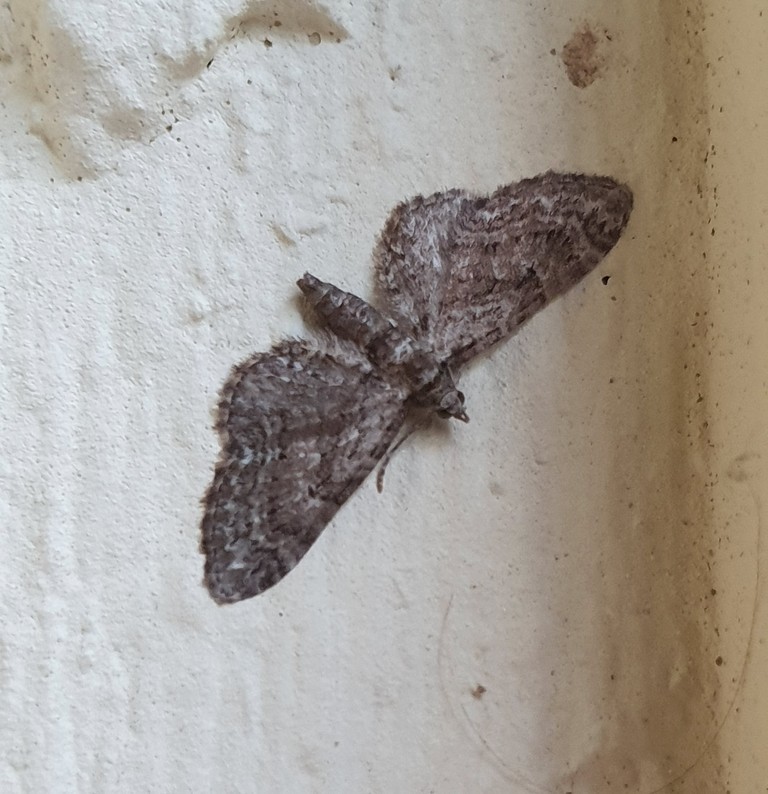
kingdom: Animalia
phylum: Arthropoda
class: Insecta
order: Lepidoptera
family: Geometridae
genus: Eupithecia
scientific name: Eupithecia pusillata
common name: Juniper pug
